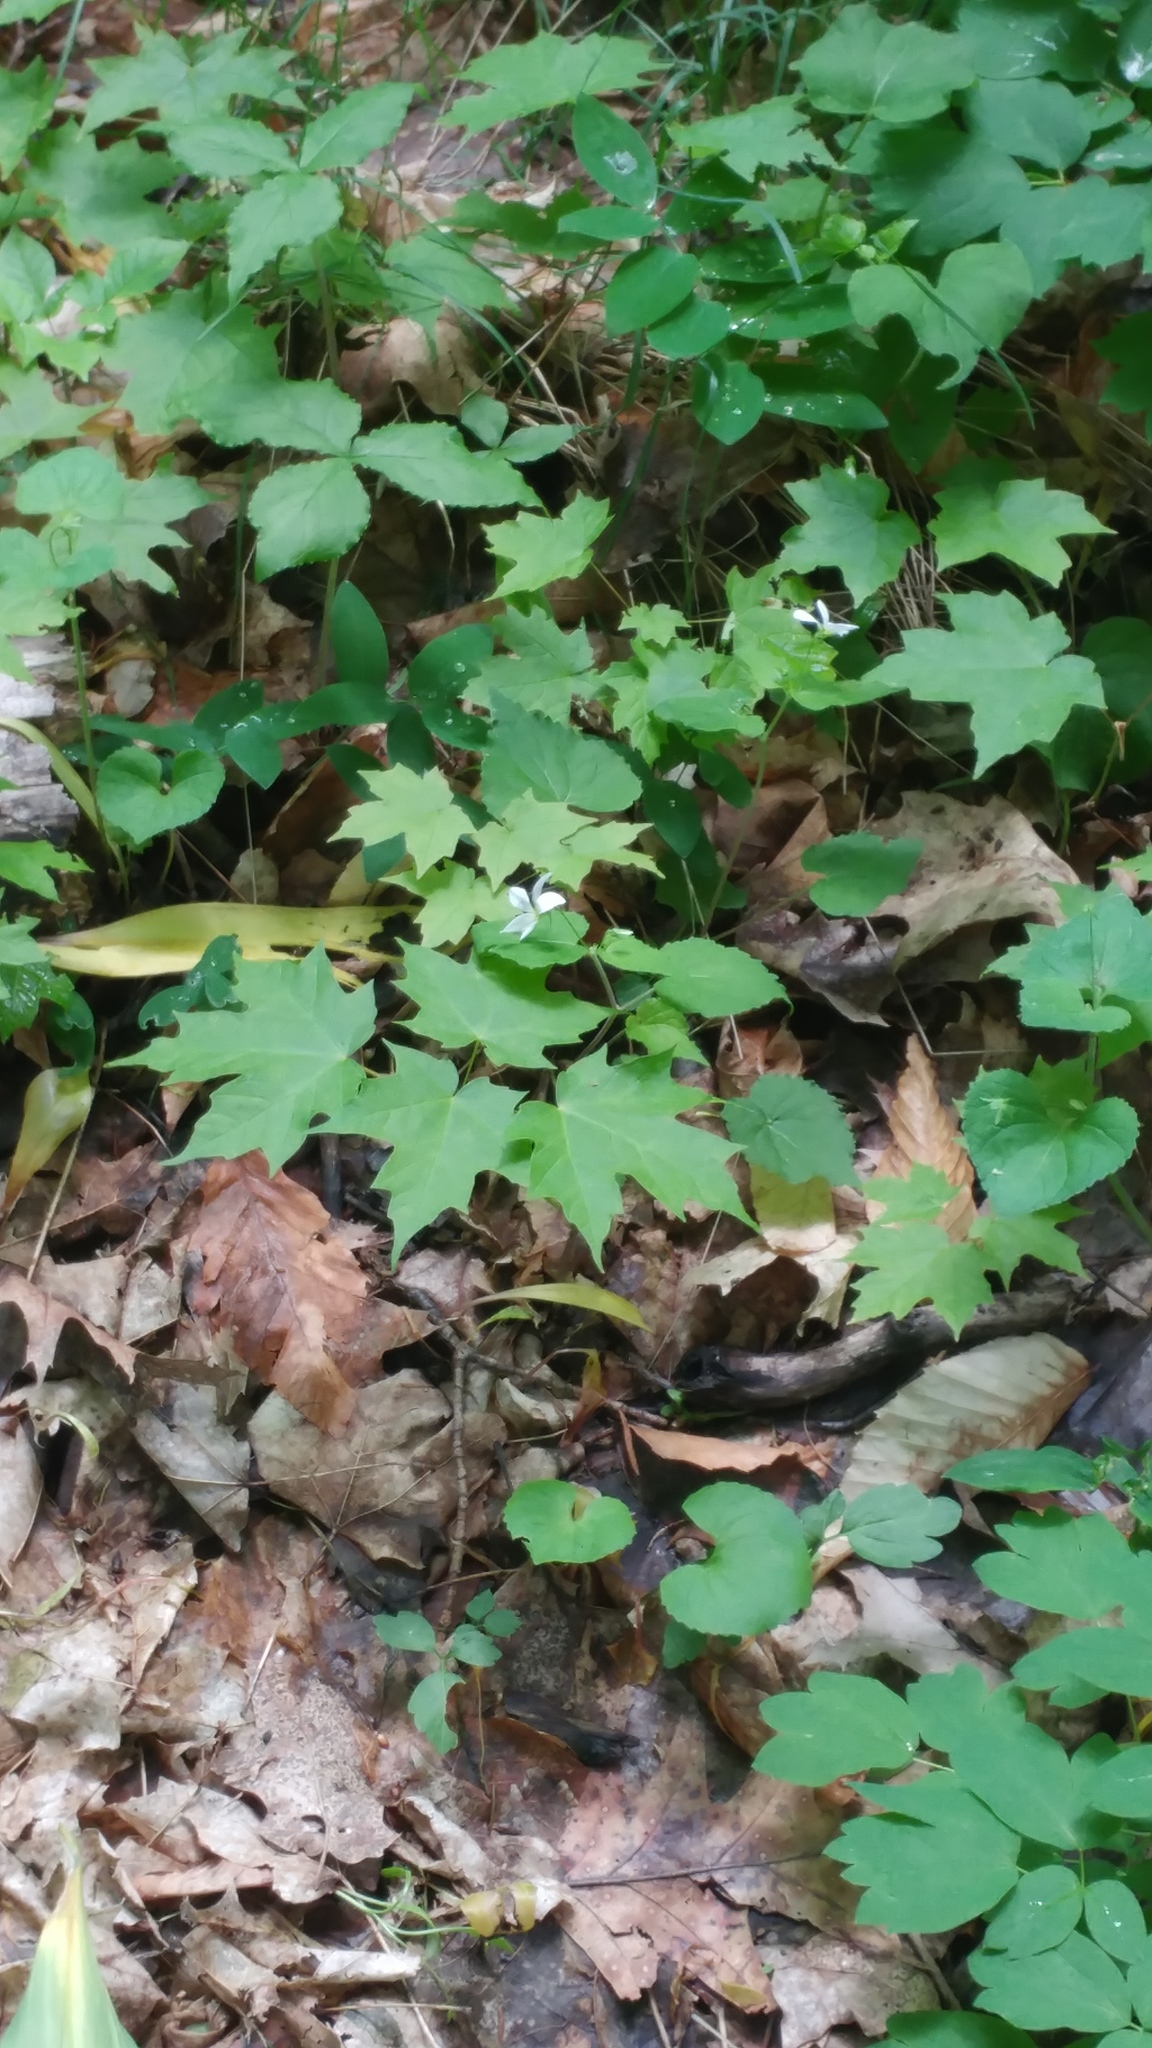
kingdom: Plantae
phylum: Tracheophyta
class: Magnoliopsida
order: Malpighiales
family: Violaceae
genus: Viola
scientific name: Viola canadensis
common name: Canada violet
